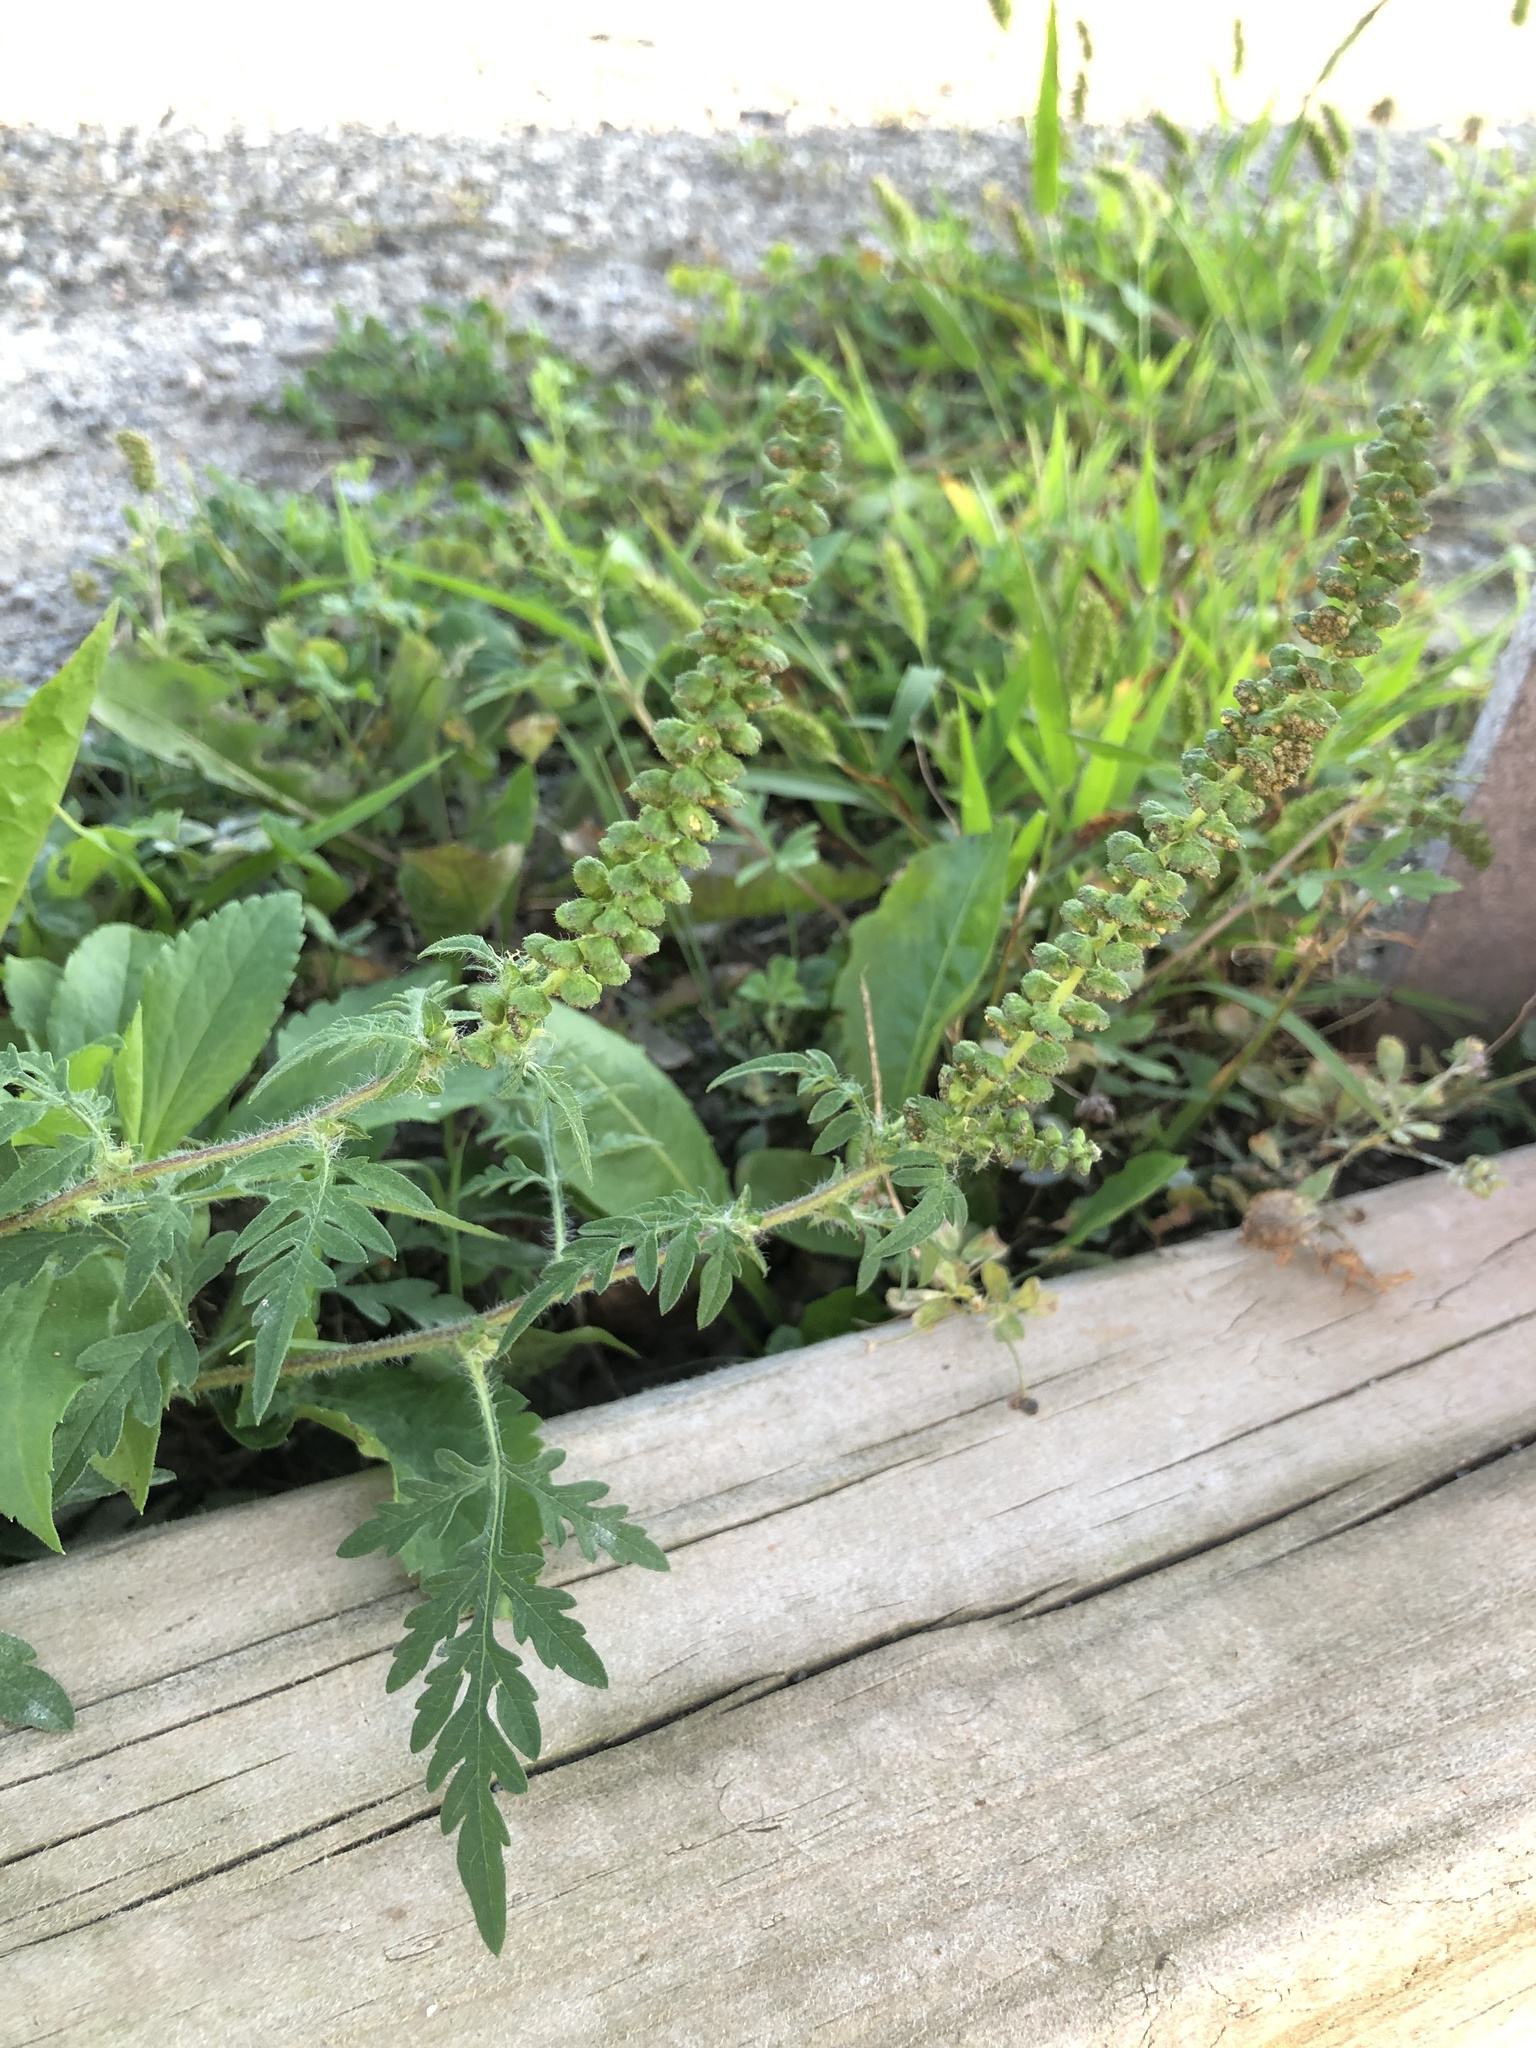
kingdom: Plantae
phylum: Tracheophyta
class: Magnoliopsida
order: Asterales
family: Asteraceae
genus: Ambrosia
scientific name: Ambrosia artemisiifolia
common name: Annual ragweed
